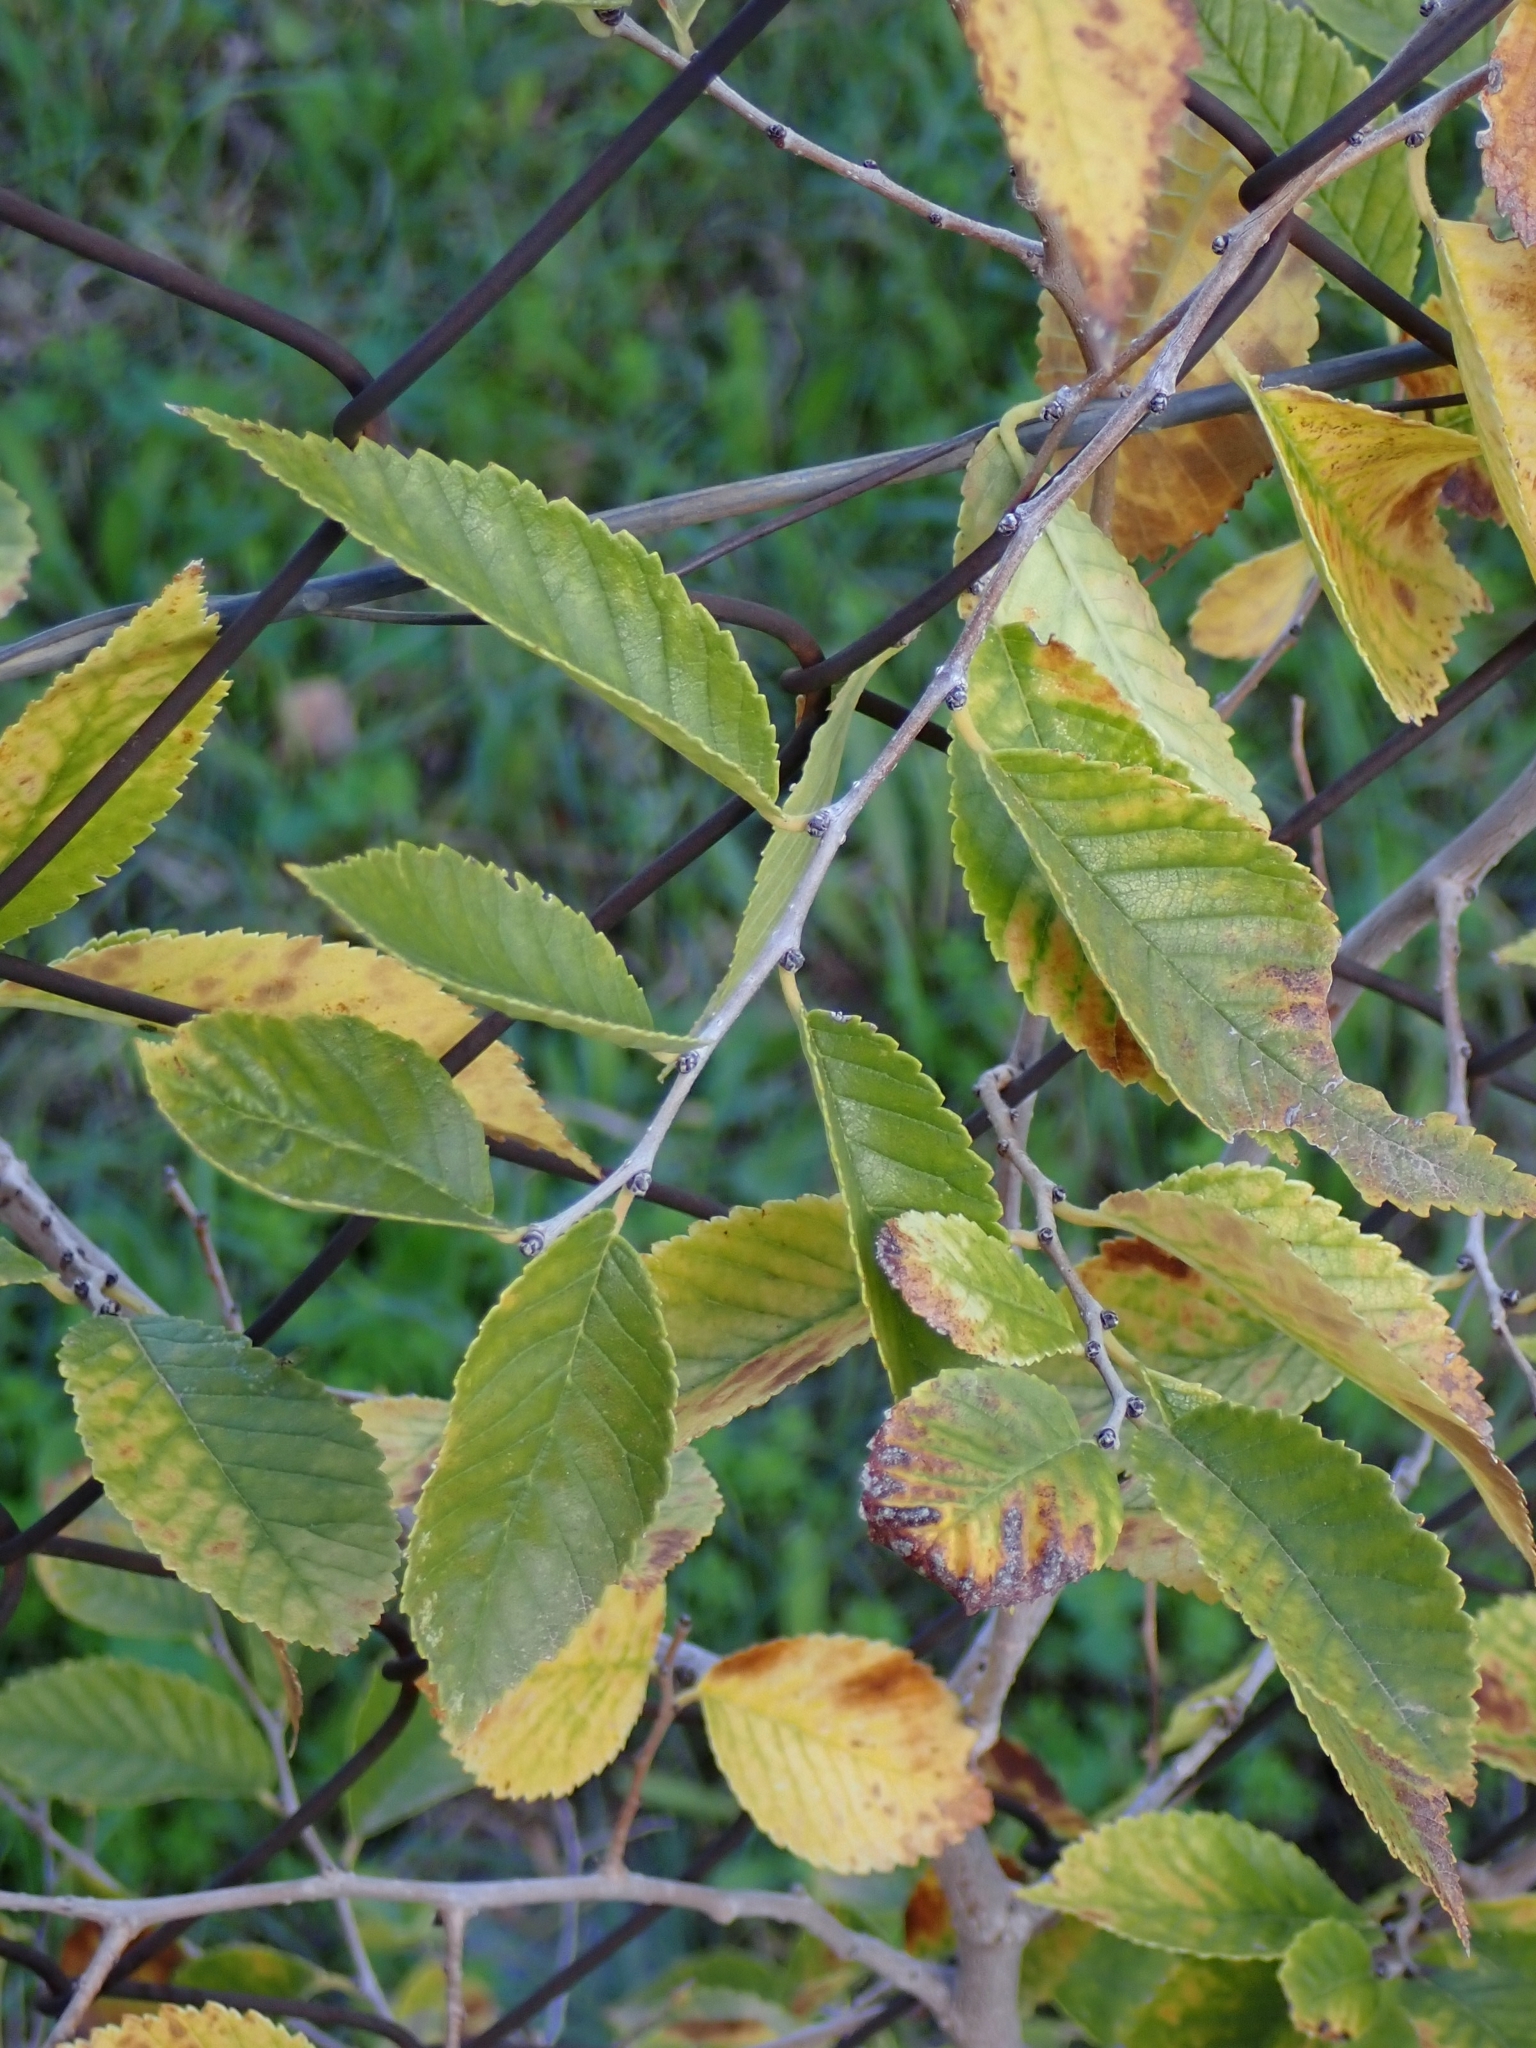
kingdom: Plantae
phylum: Tracheophyta
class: Magnoliopsida
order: Rosales
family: Ulmaceae
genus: Ulmus
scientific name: Ulmus pumila
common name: Siberian elm
